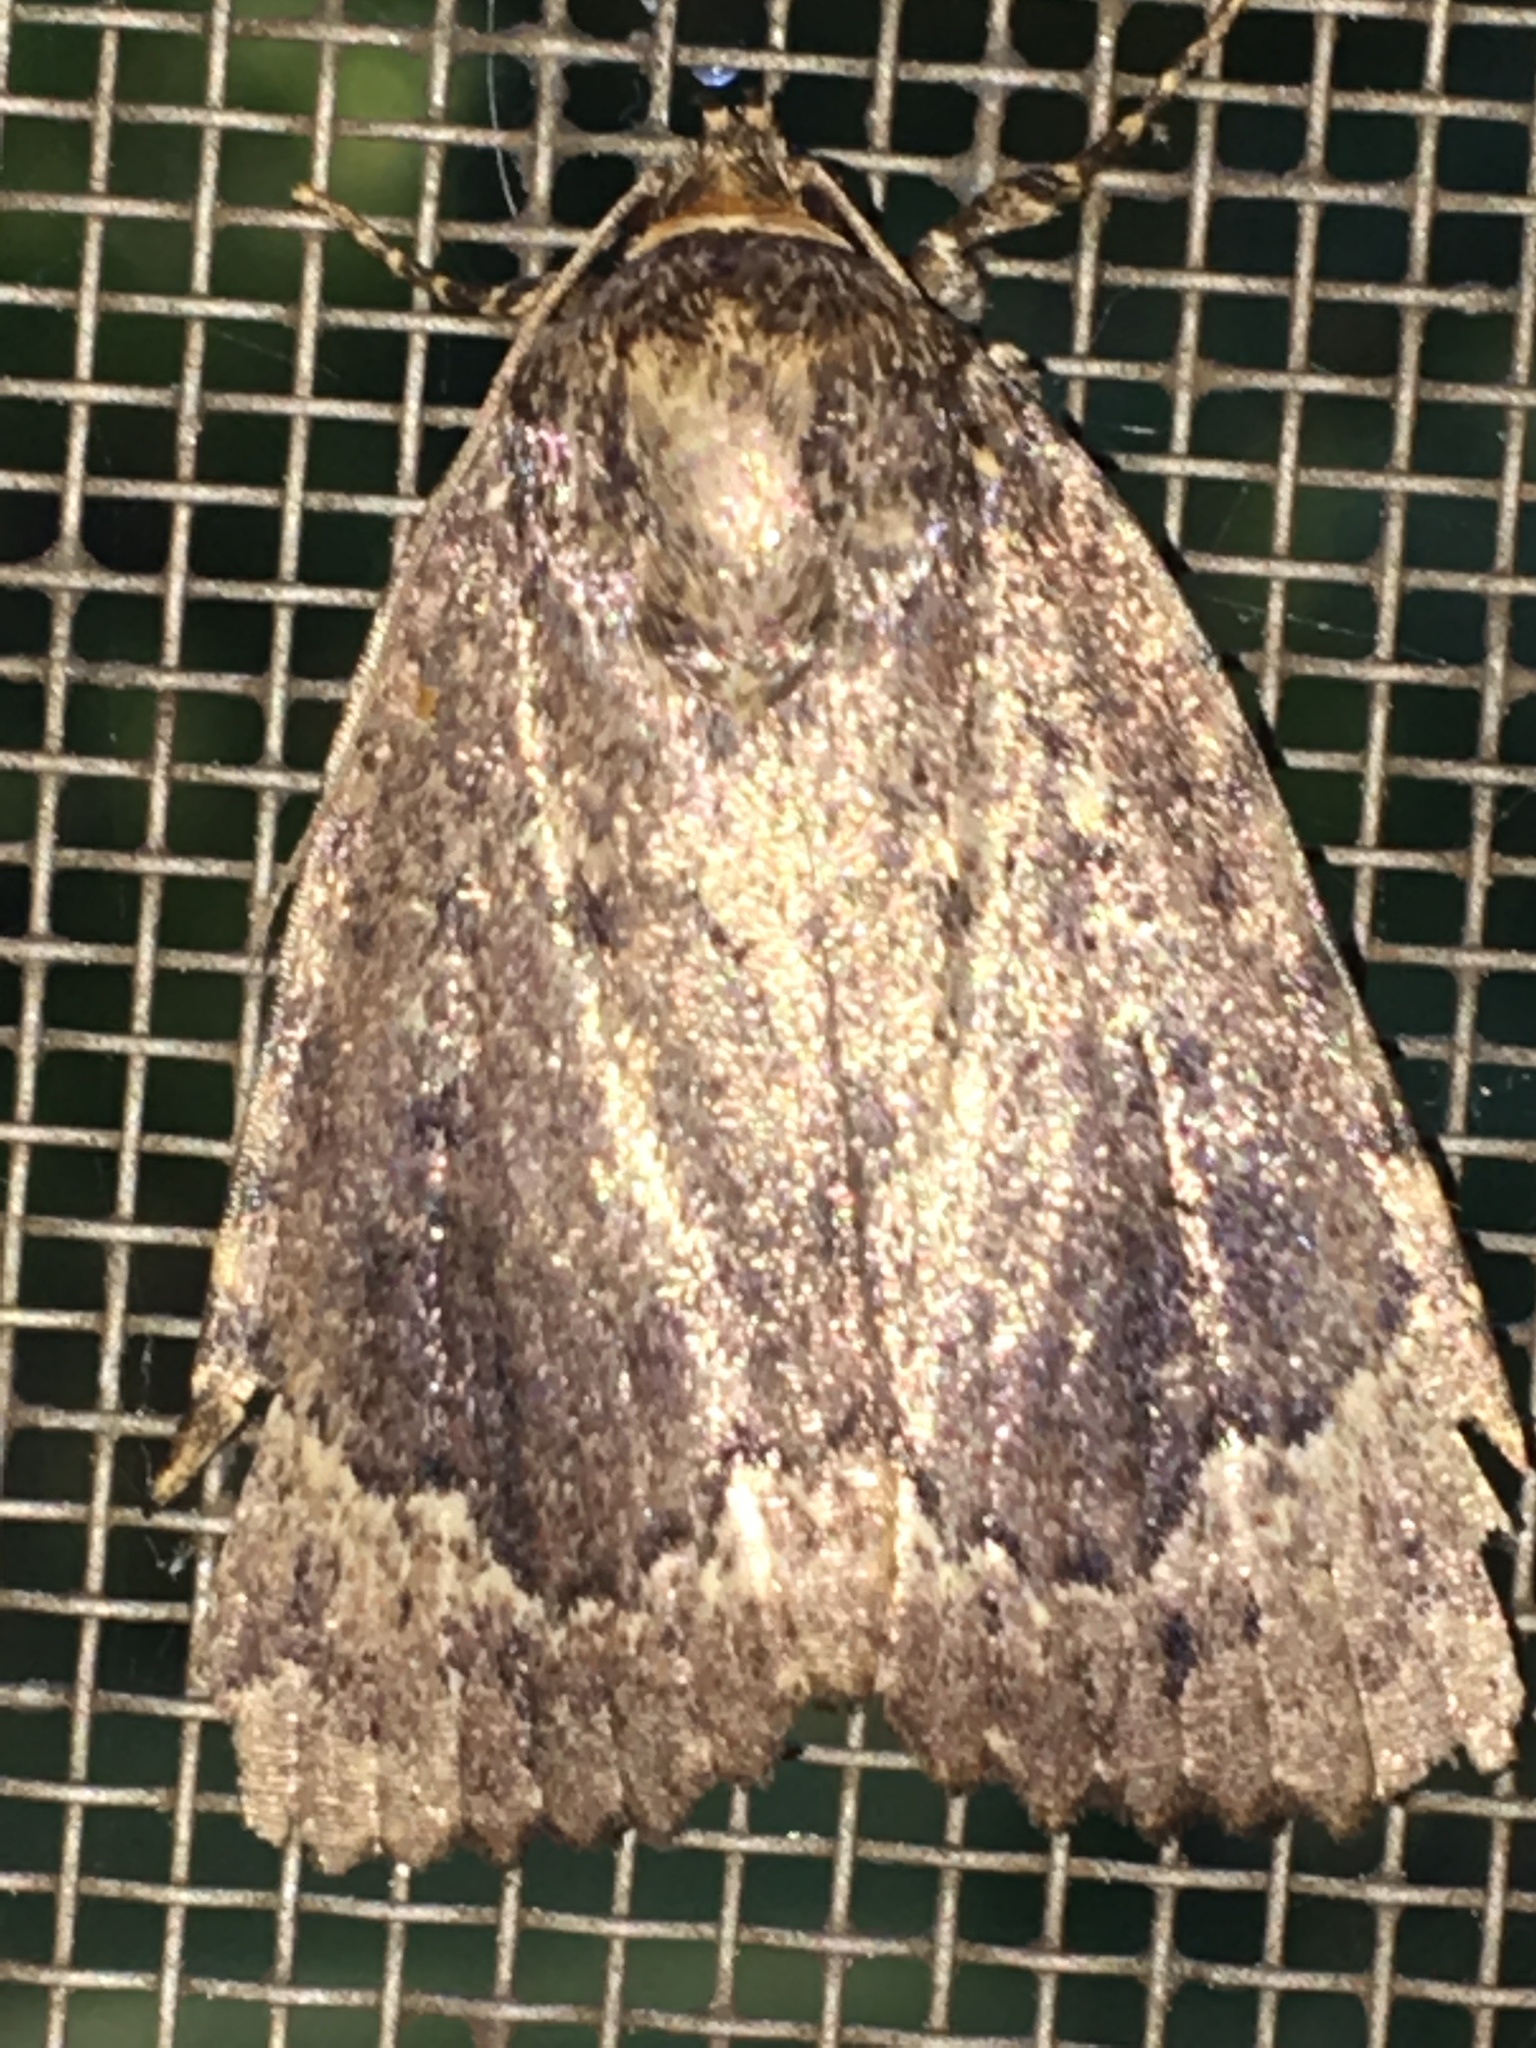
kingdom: Animalia
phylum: Arthropoda
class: Insecta
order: Lepidoptera
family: Noctuidae
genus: Amphipyra
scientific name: Amphipyra pyramidoides
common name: American copper underwing
